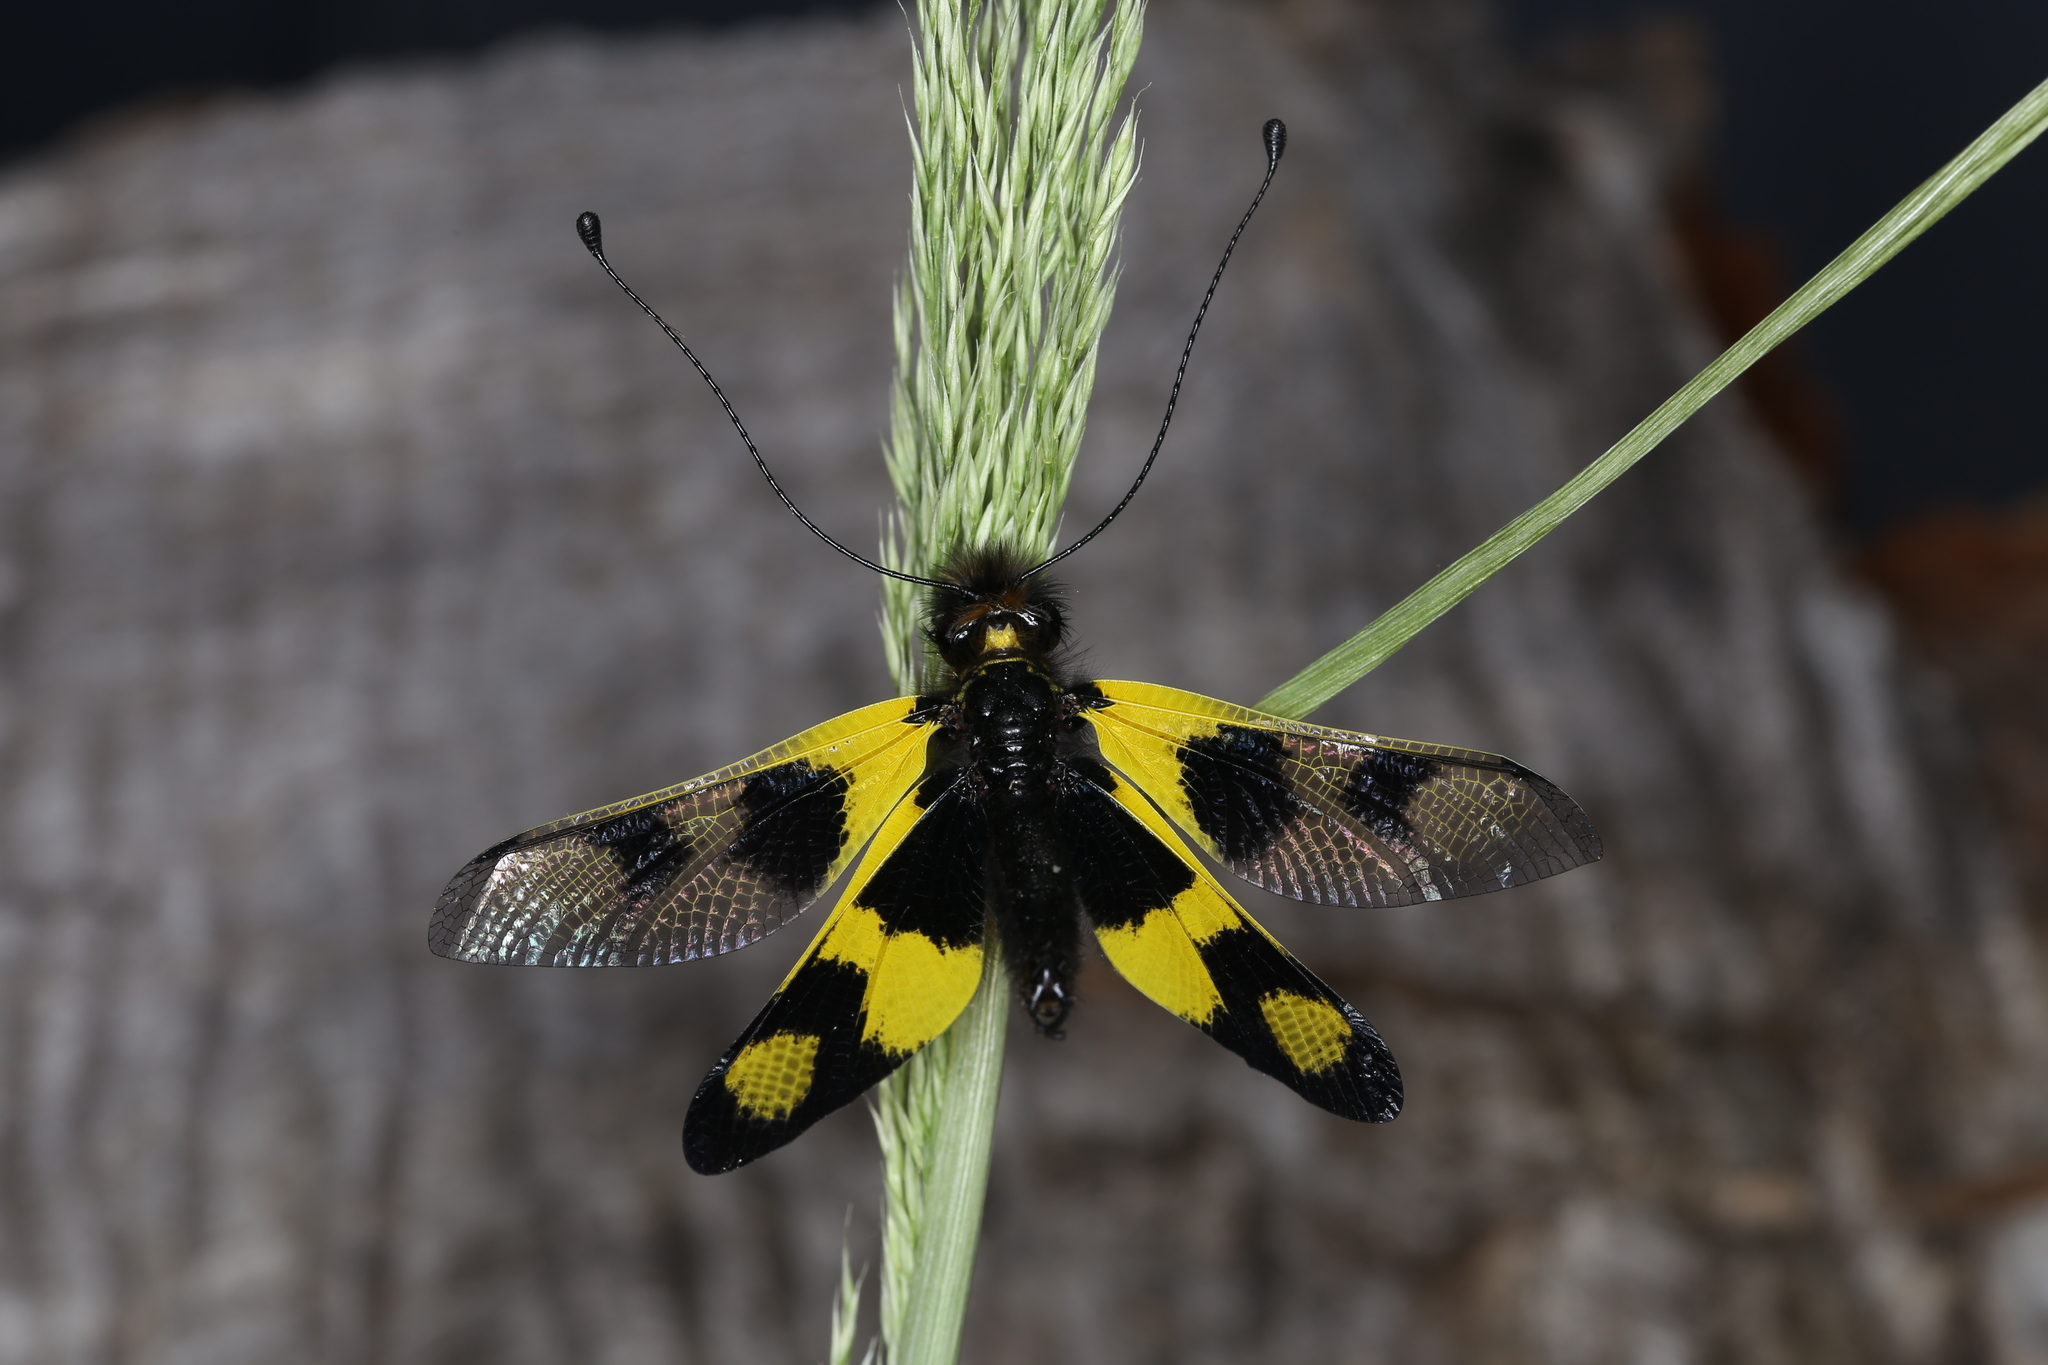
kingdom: Animalia
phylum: Arthropoda
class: Insecta
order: Neuroptera
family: Ascalaphidae
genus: Libelloides
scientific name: Libelloides macaronius
